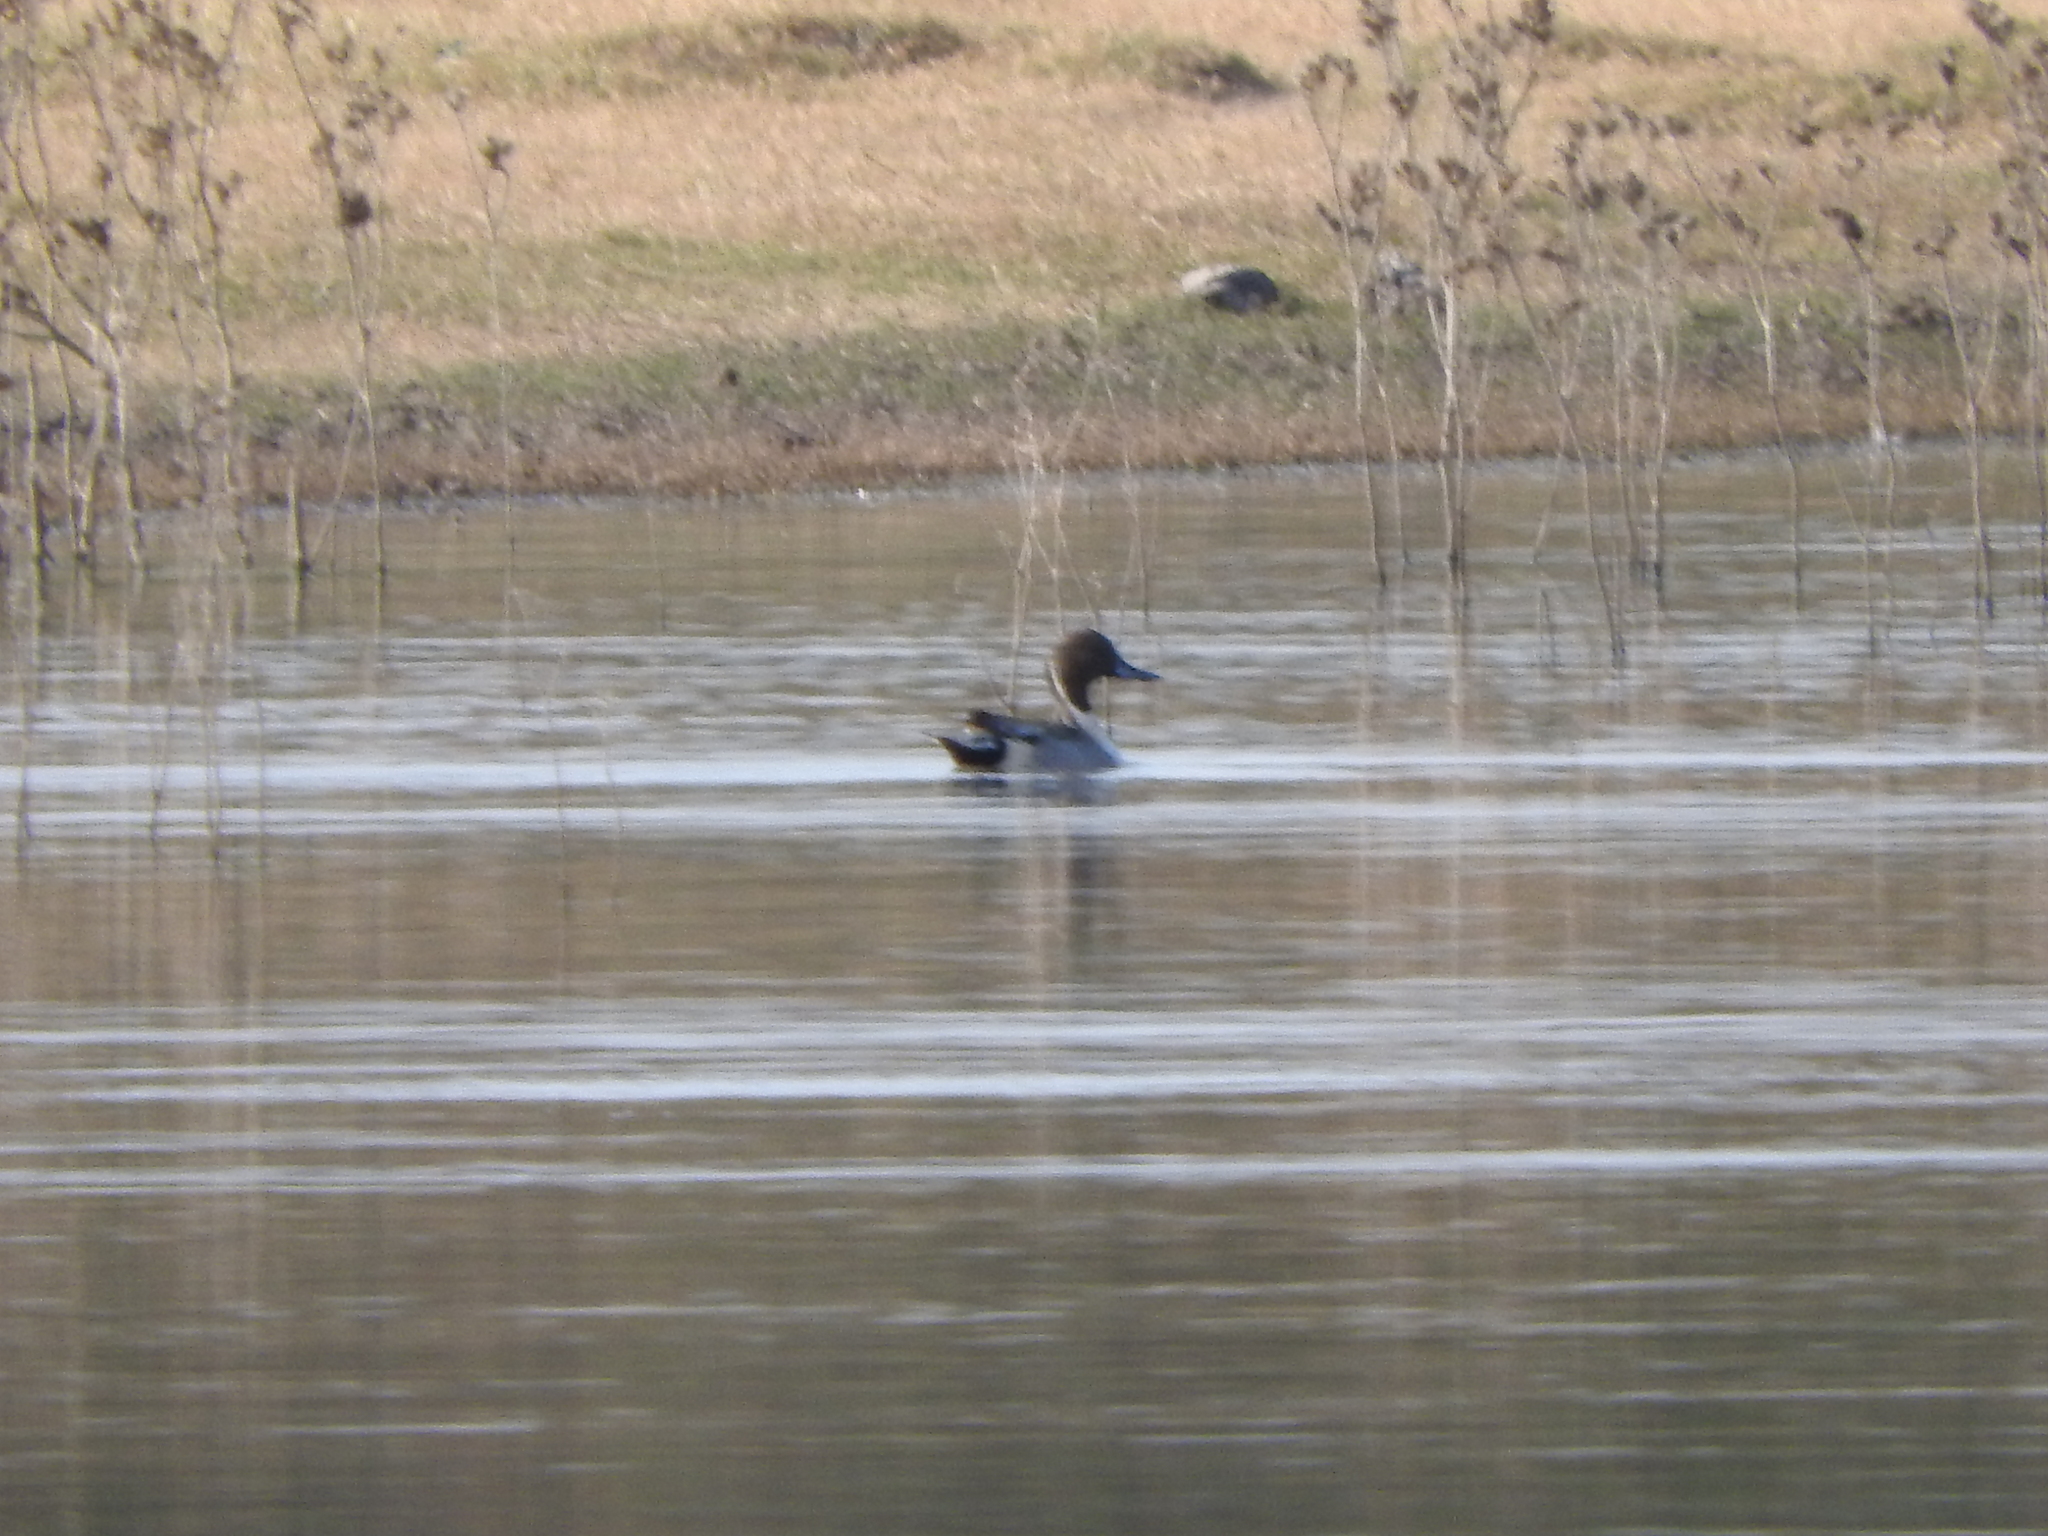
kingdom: Animalia
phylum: Chordata
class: Aves
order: Anseriformes
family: Anatidae
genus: Anas
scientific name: Anas acuta
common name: Northern pintail
